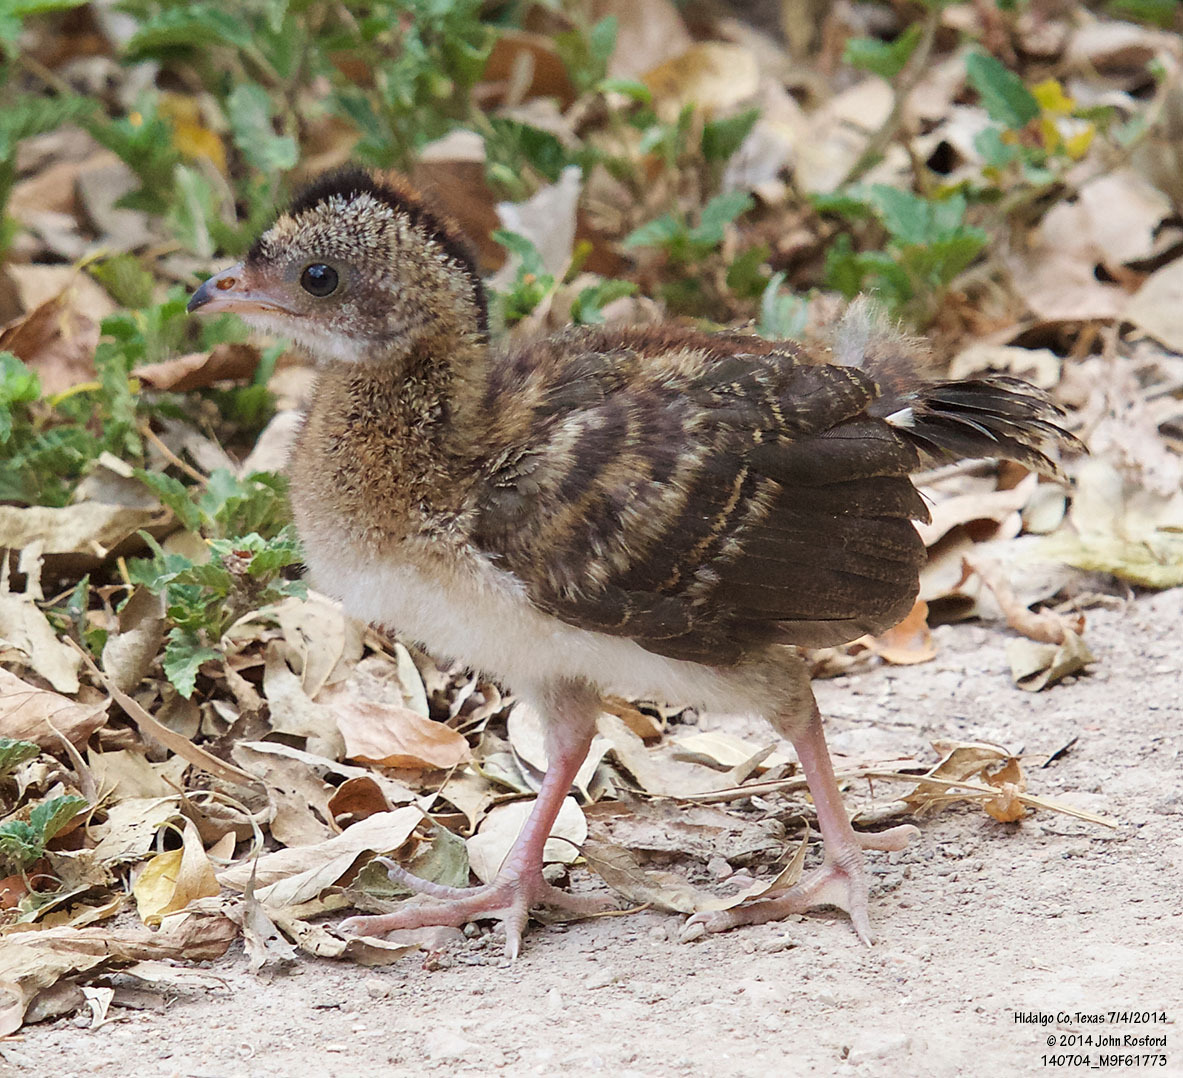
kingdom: Animalia
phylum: Chordata
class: Aves
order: Galliformes
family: Cracidae
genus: Ortalis
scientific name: Ortalis vetula
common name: Plain chachalaca
